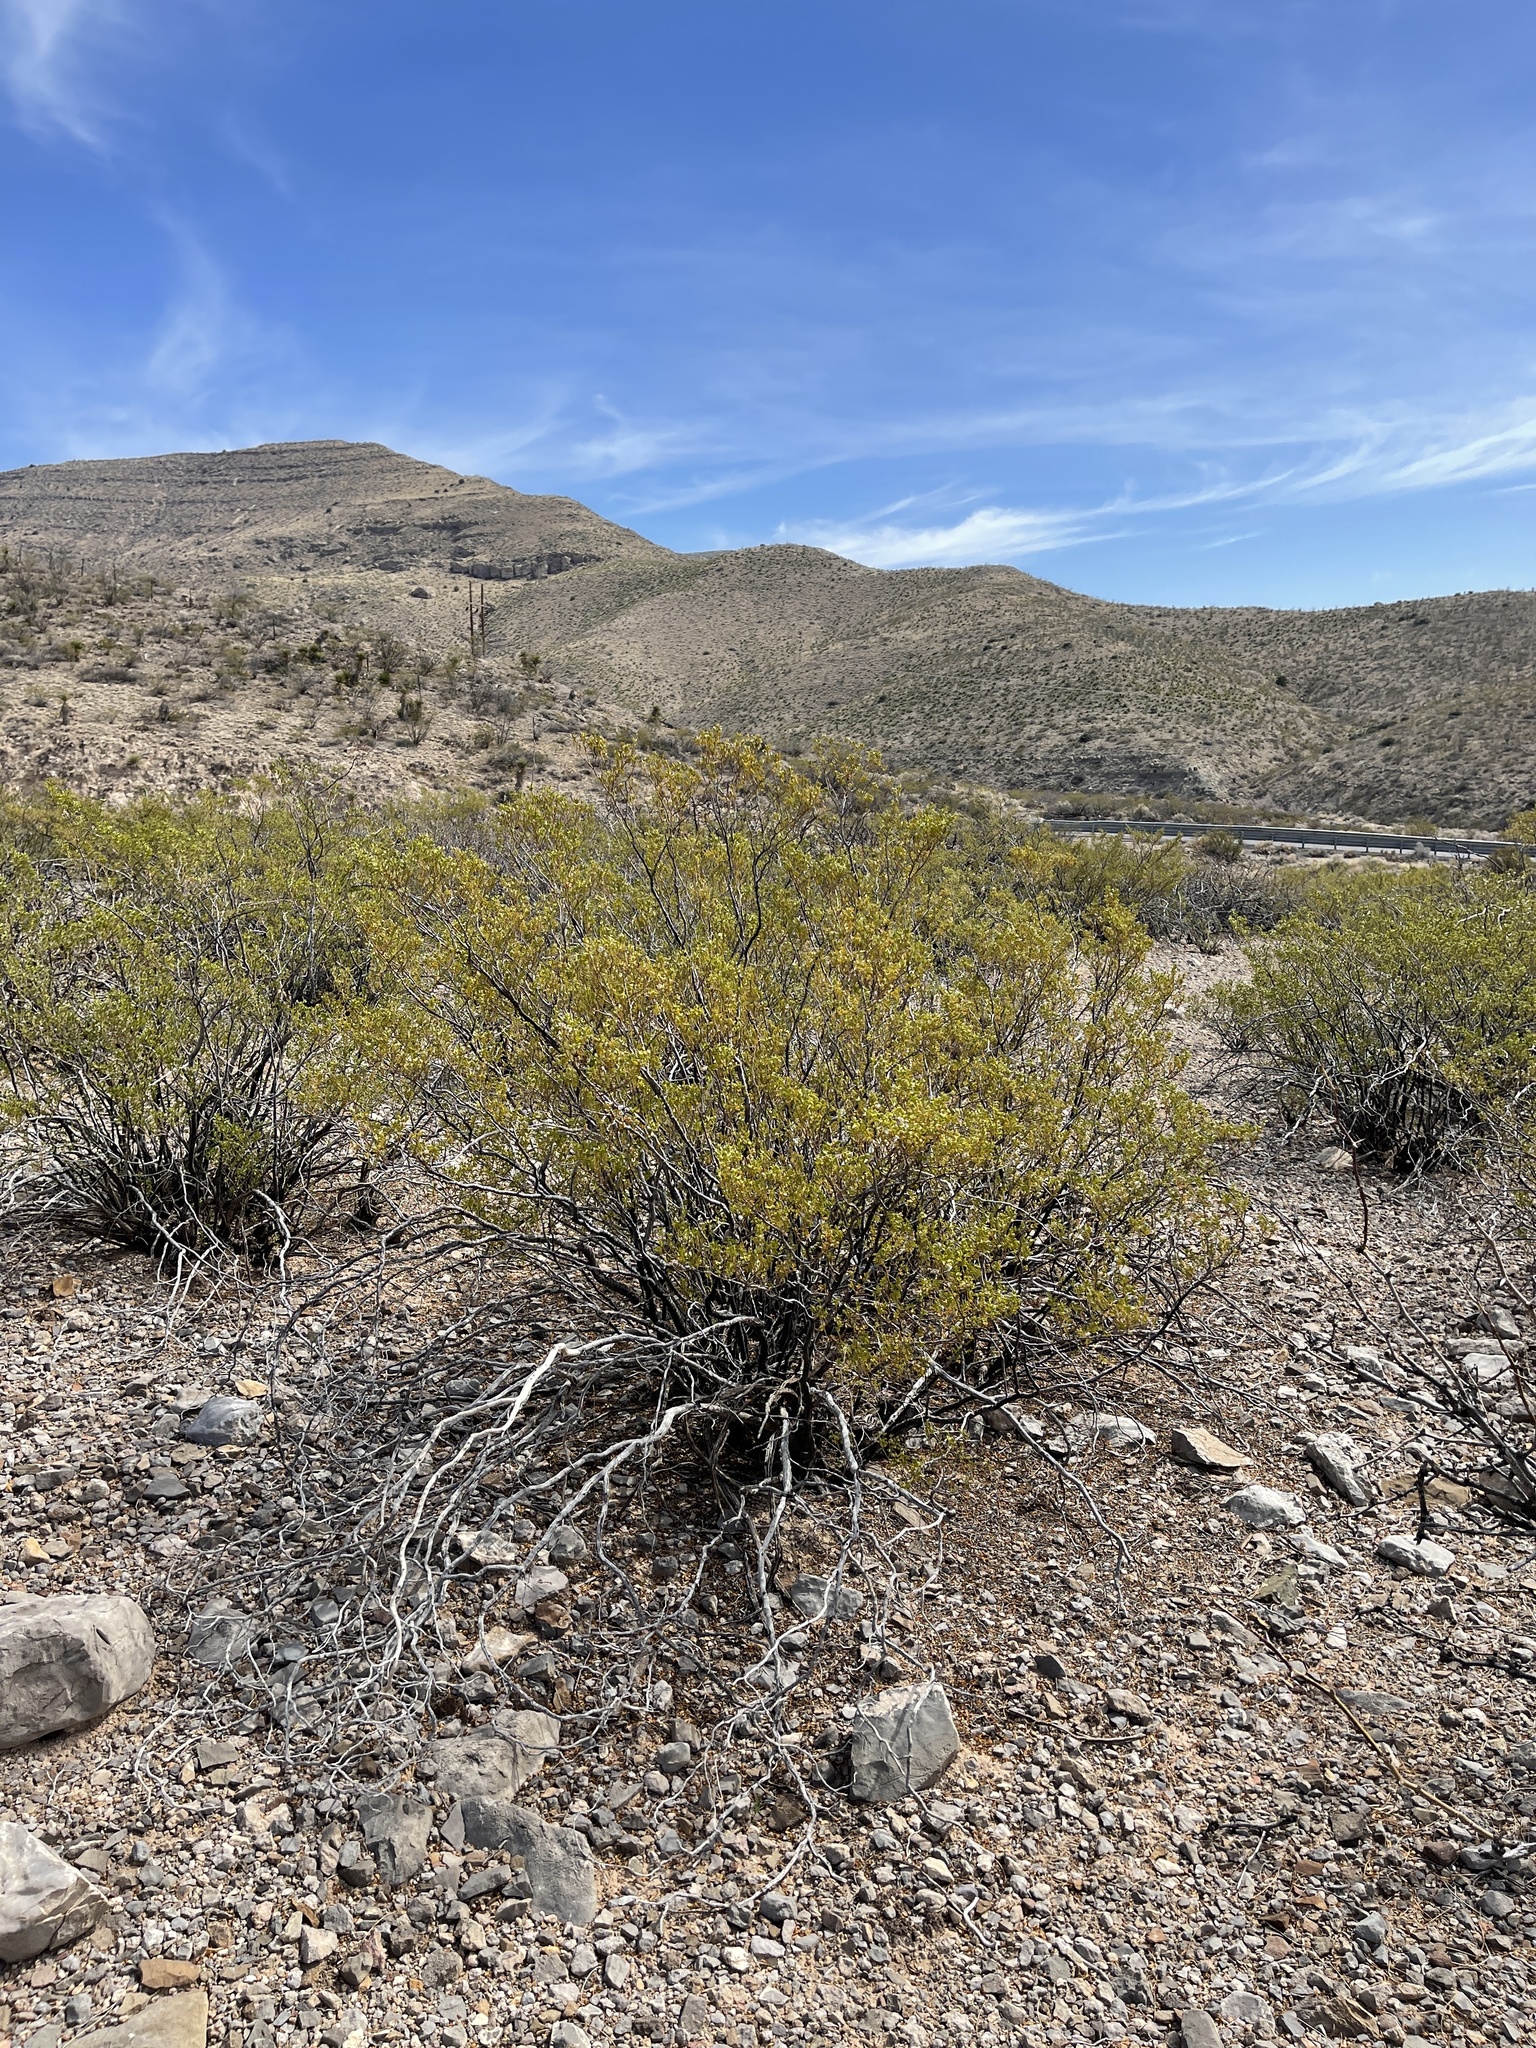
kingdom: Plantae
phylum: Tracheophyta
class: Magnoliopsida
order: Zygophyllales
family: Zygophyllaceae
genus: Larrea
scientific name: Larrea tridentata
